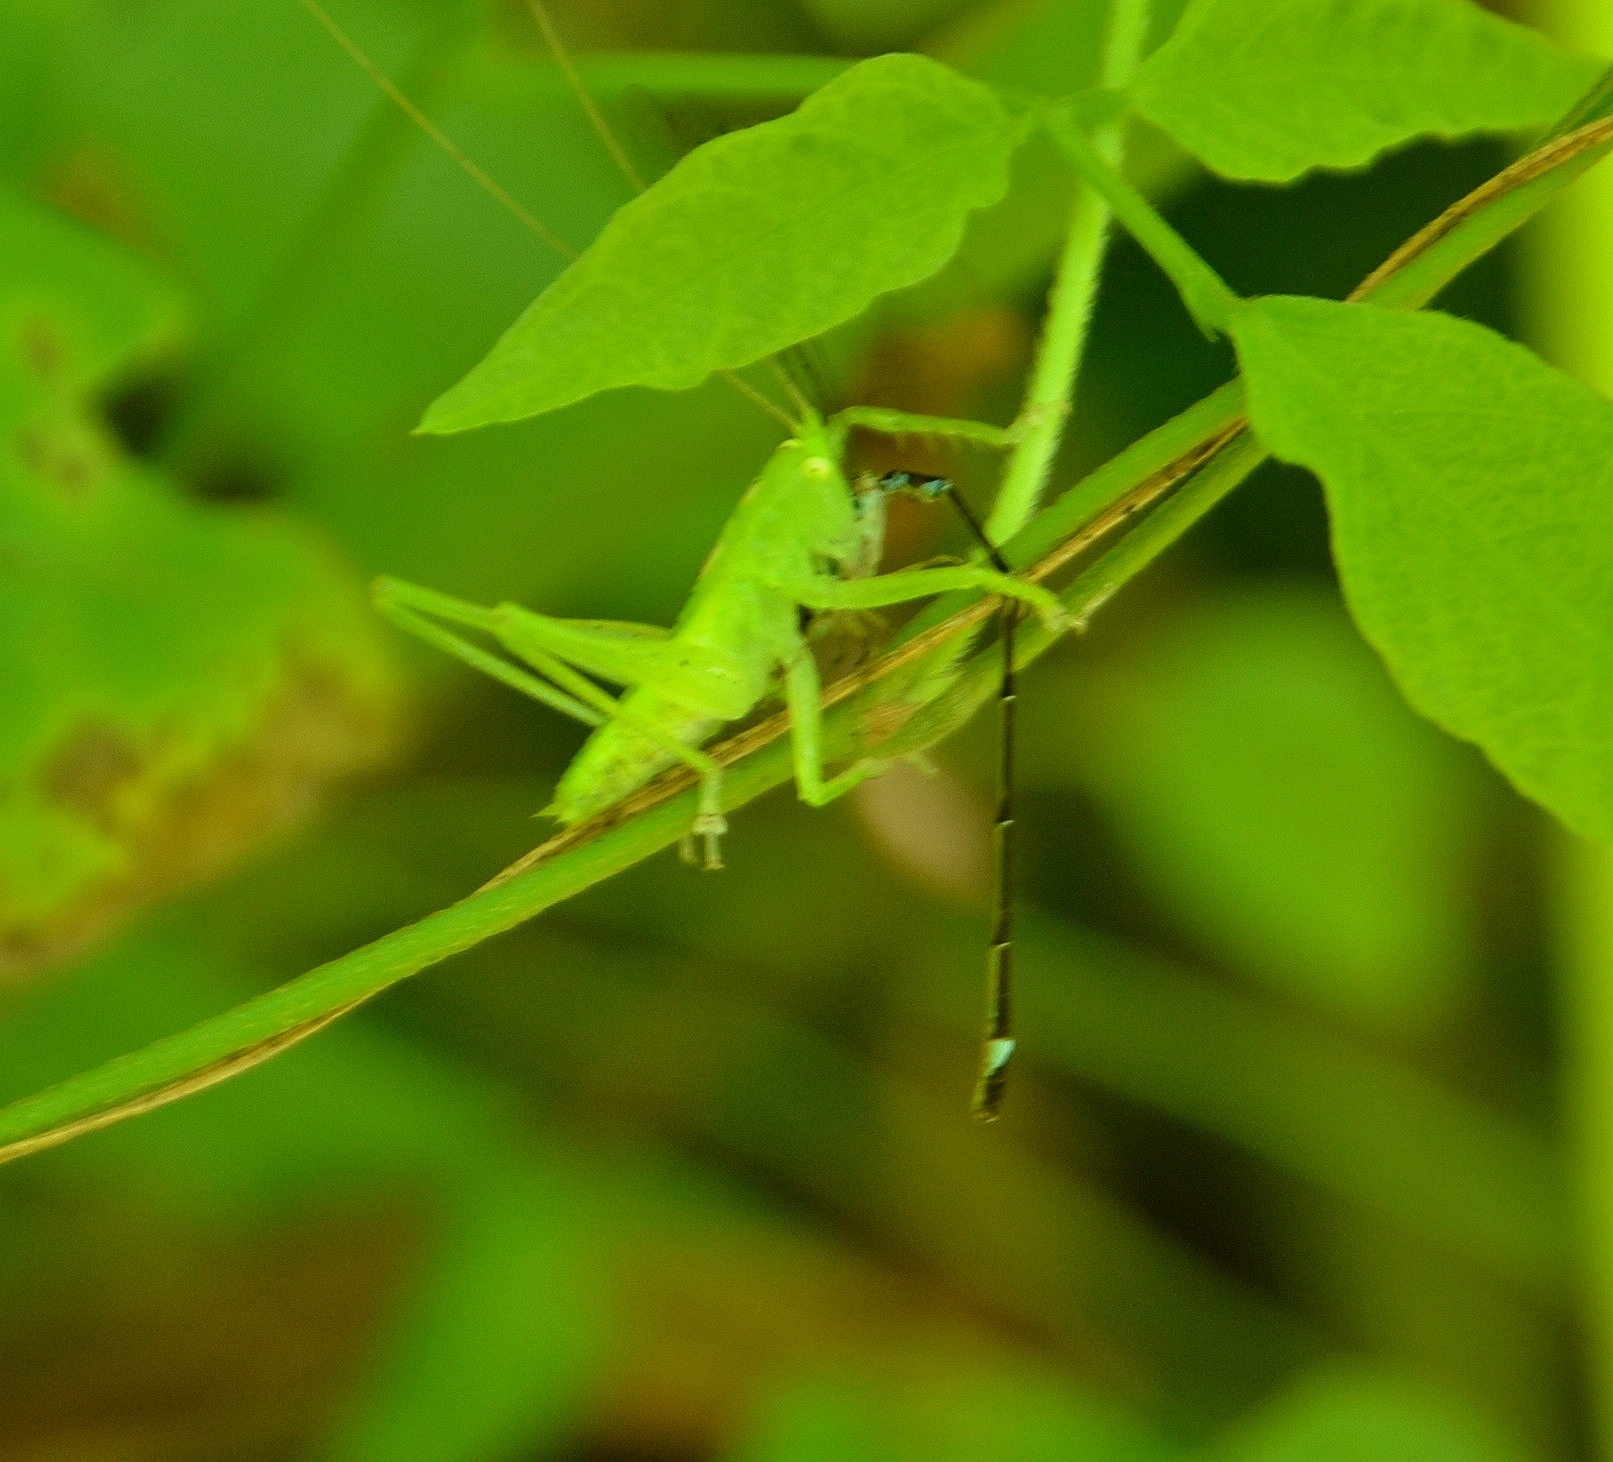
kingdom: Animalia
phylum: Arthropoda
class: Insecta
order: Odonata
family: Coenagrionidae
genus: Mortonagrion
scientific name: Mortonagrion varralli
